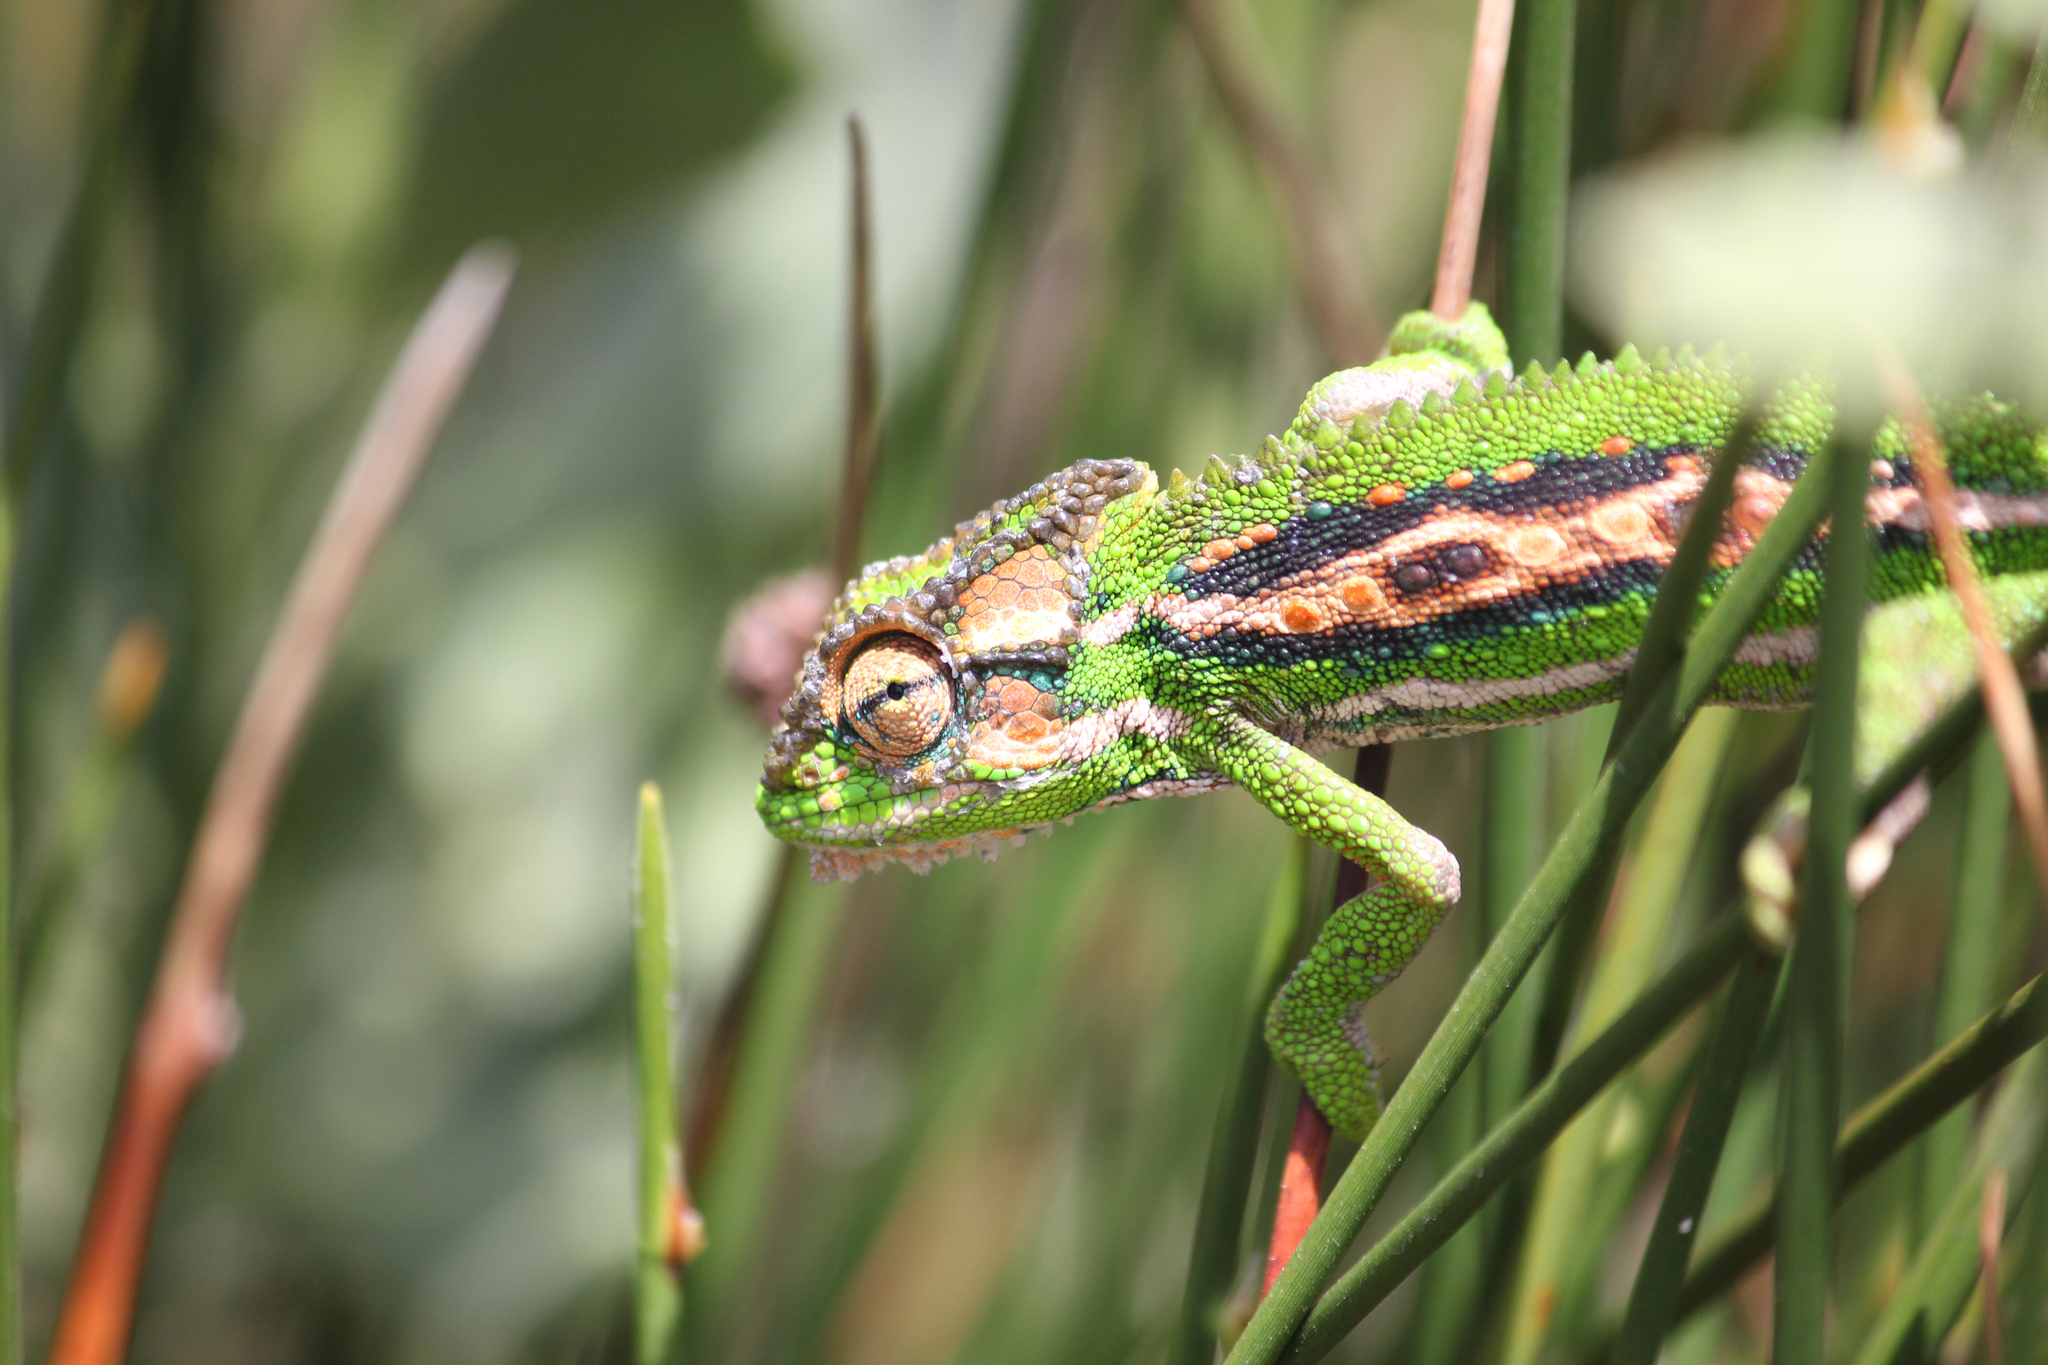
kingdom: Animalia
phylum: Chordata
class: Squamata
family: Chamaeleonidae
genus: Bradypodion
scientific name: Bradypodion pumilum
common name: Cape dwarf chameleon
